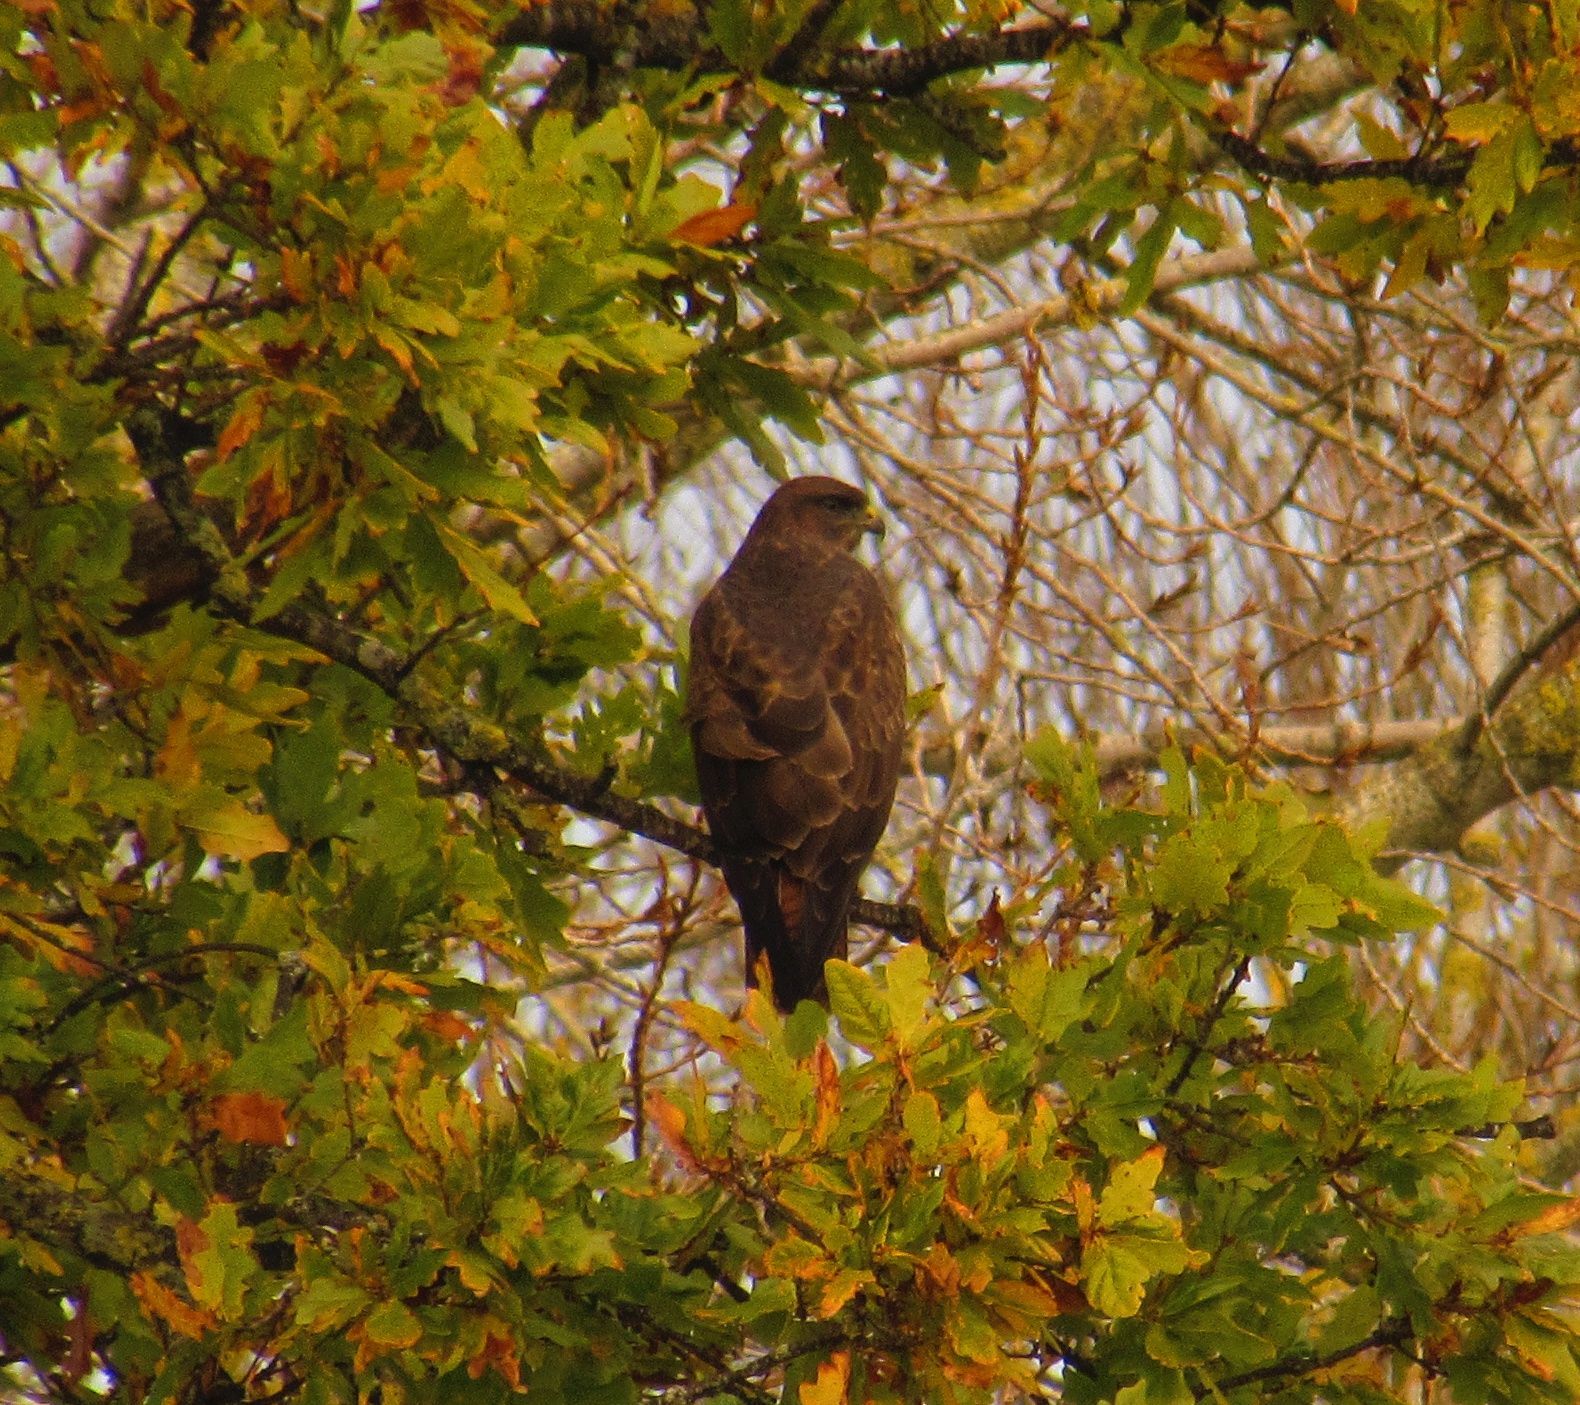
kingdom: Animalia
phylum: Chordata
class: Aves
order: Accipitriformes
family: Accipitridae
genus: Buteo
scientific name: Buteo buteo
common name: Common buzzard
